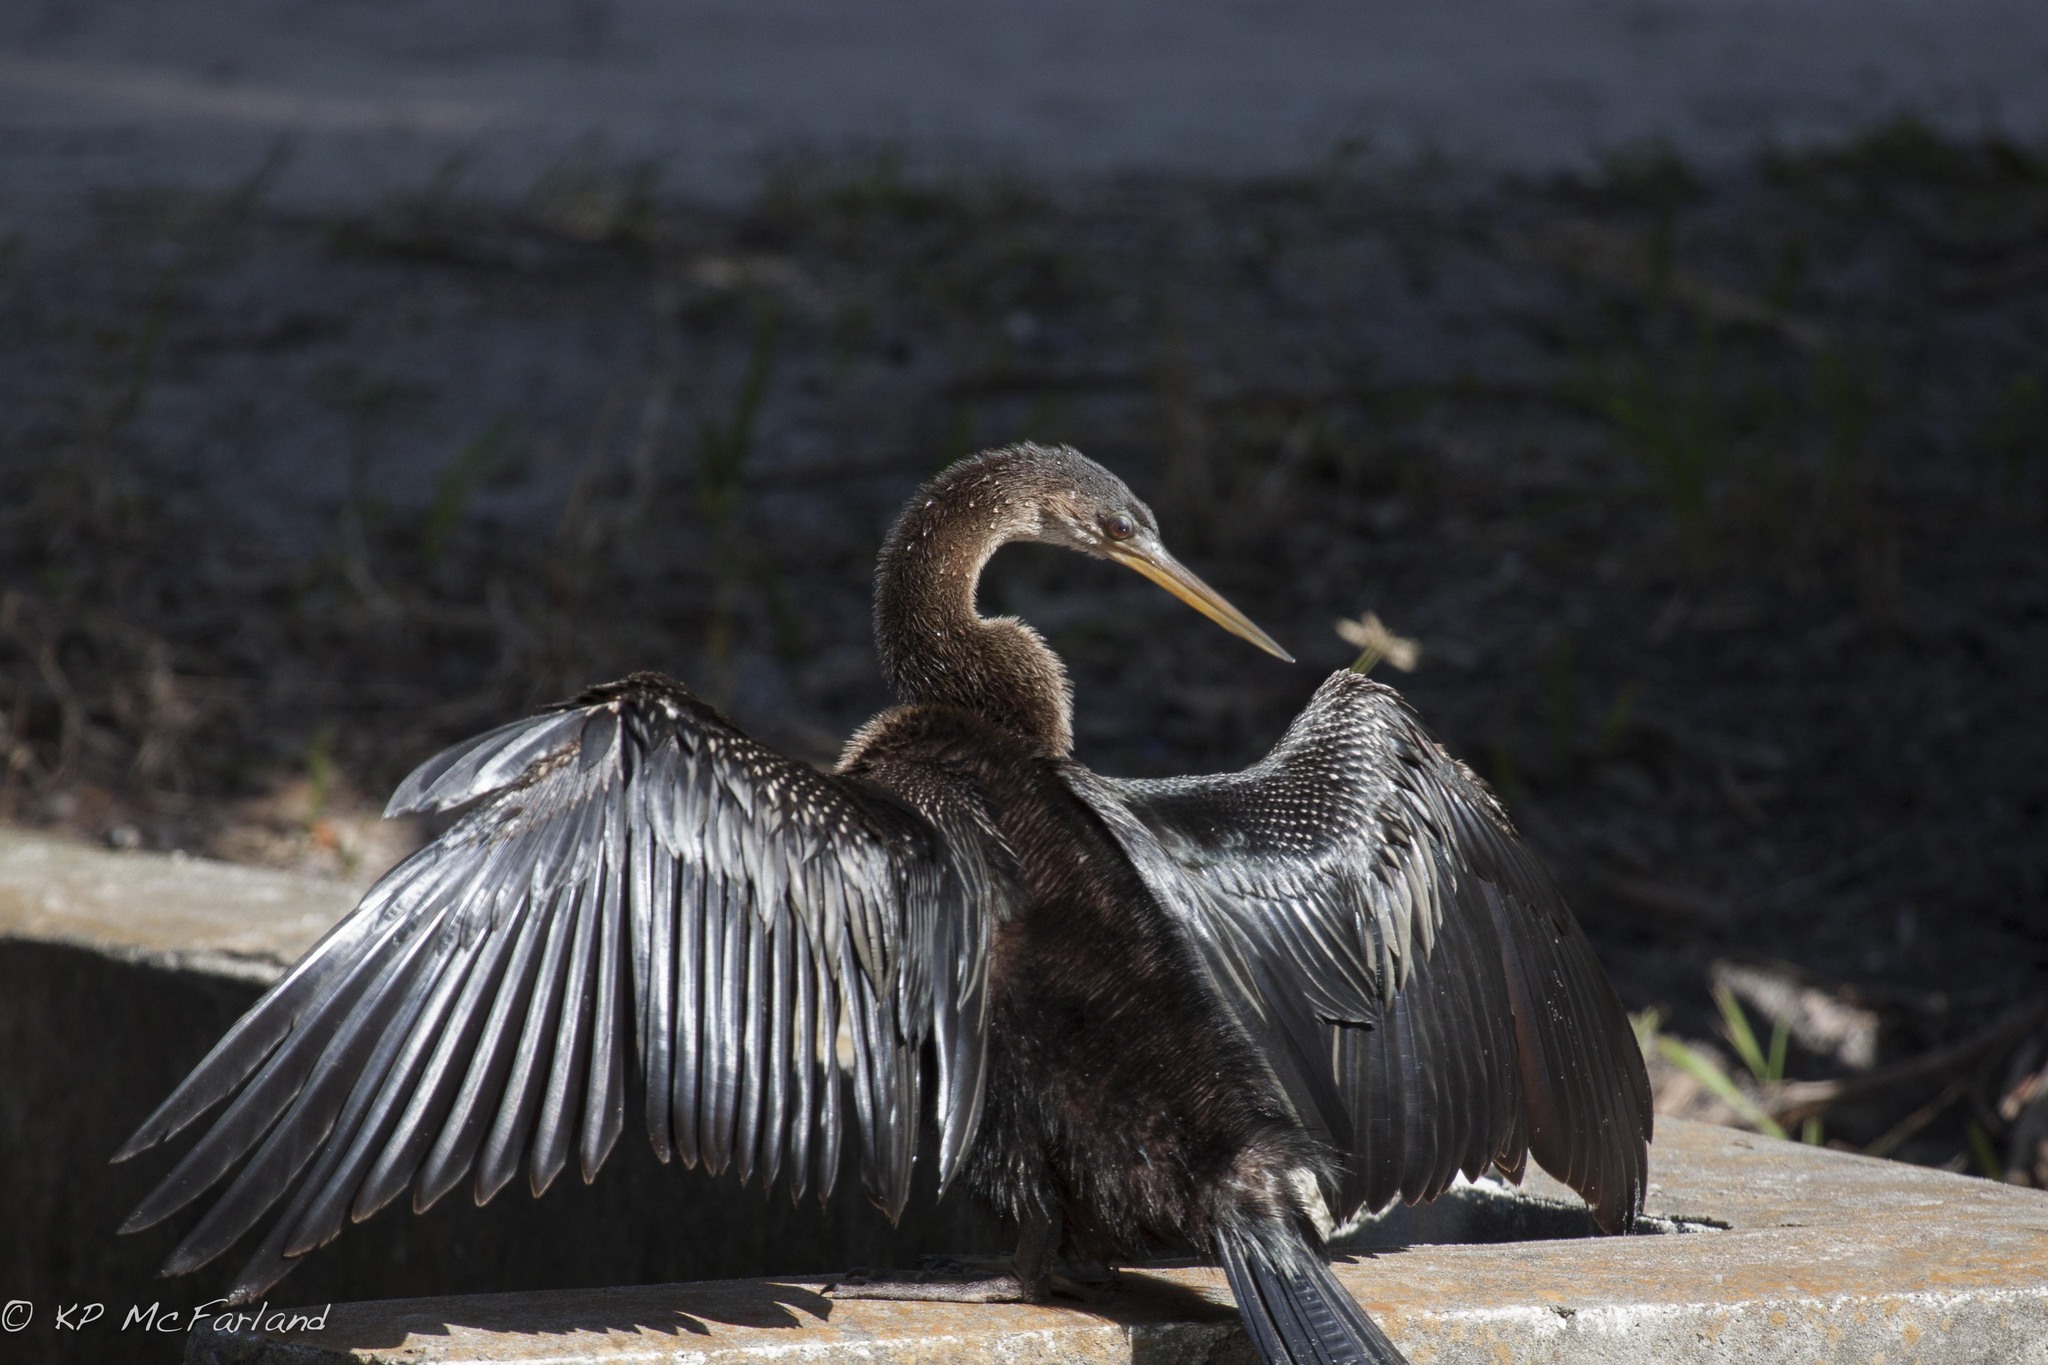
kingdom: Animalia
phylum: Chordata
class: Aves
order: Suliformes
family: Anhingidae
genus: Anhinga
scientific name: Anhinga anhinga
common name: Anhinga
